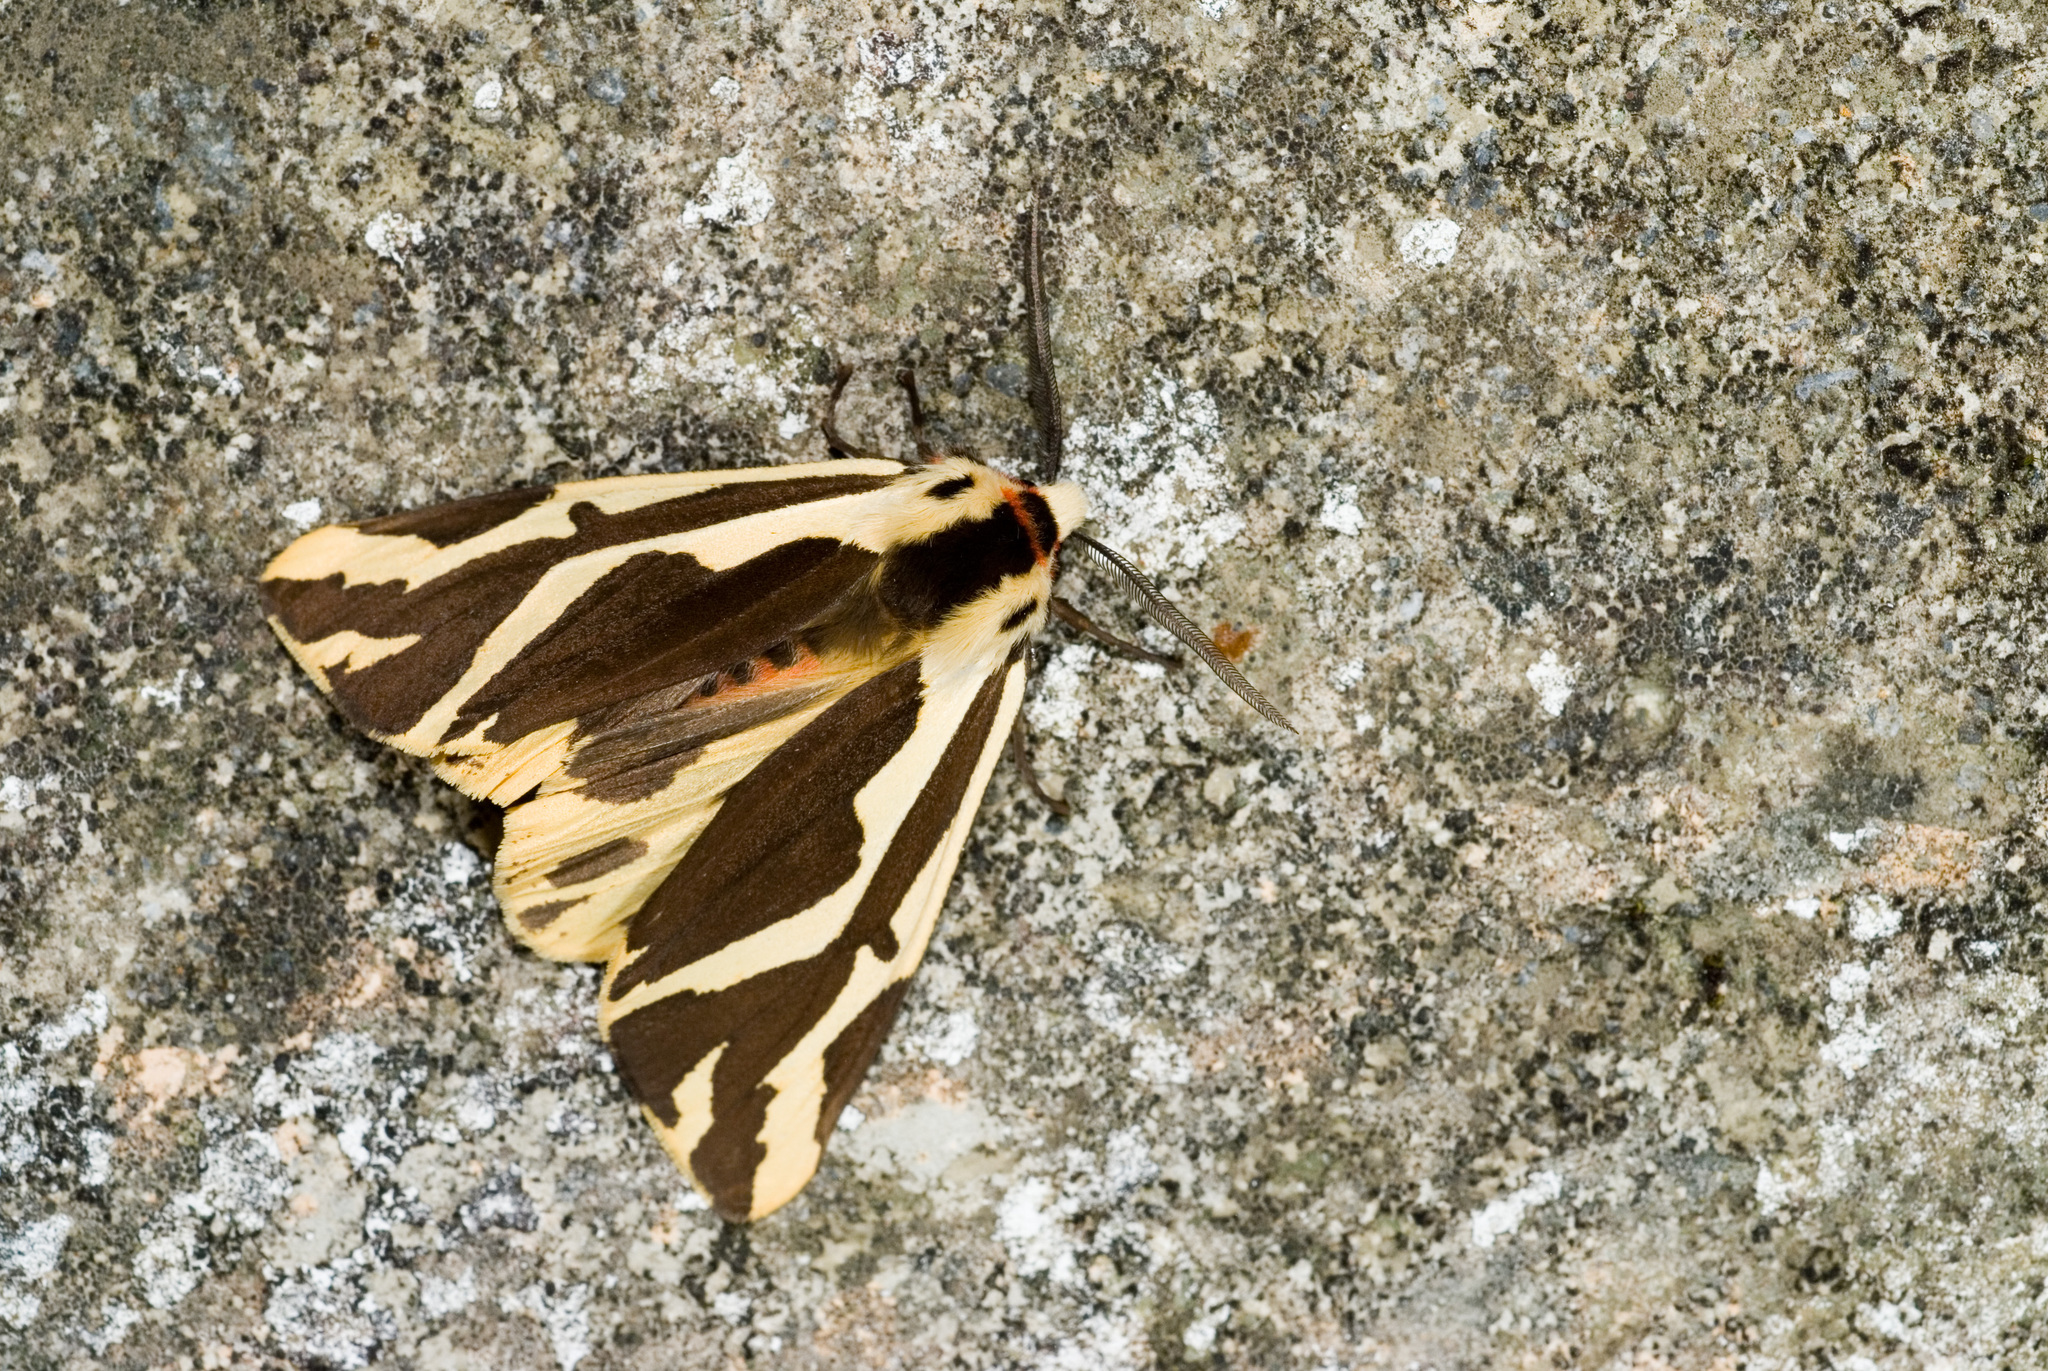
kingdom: Animalia
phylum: Arthropoda
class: Insecta
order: Lepidoptera
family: Erebidae
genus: Paraspilarctia
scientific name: Paraspilarctia magna
